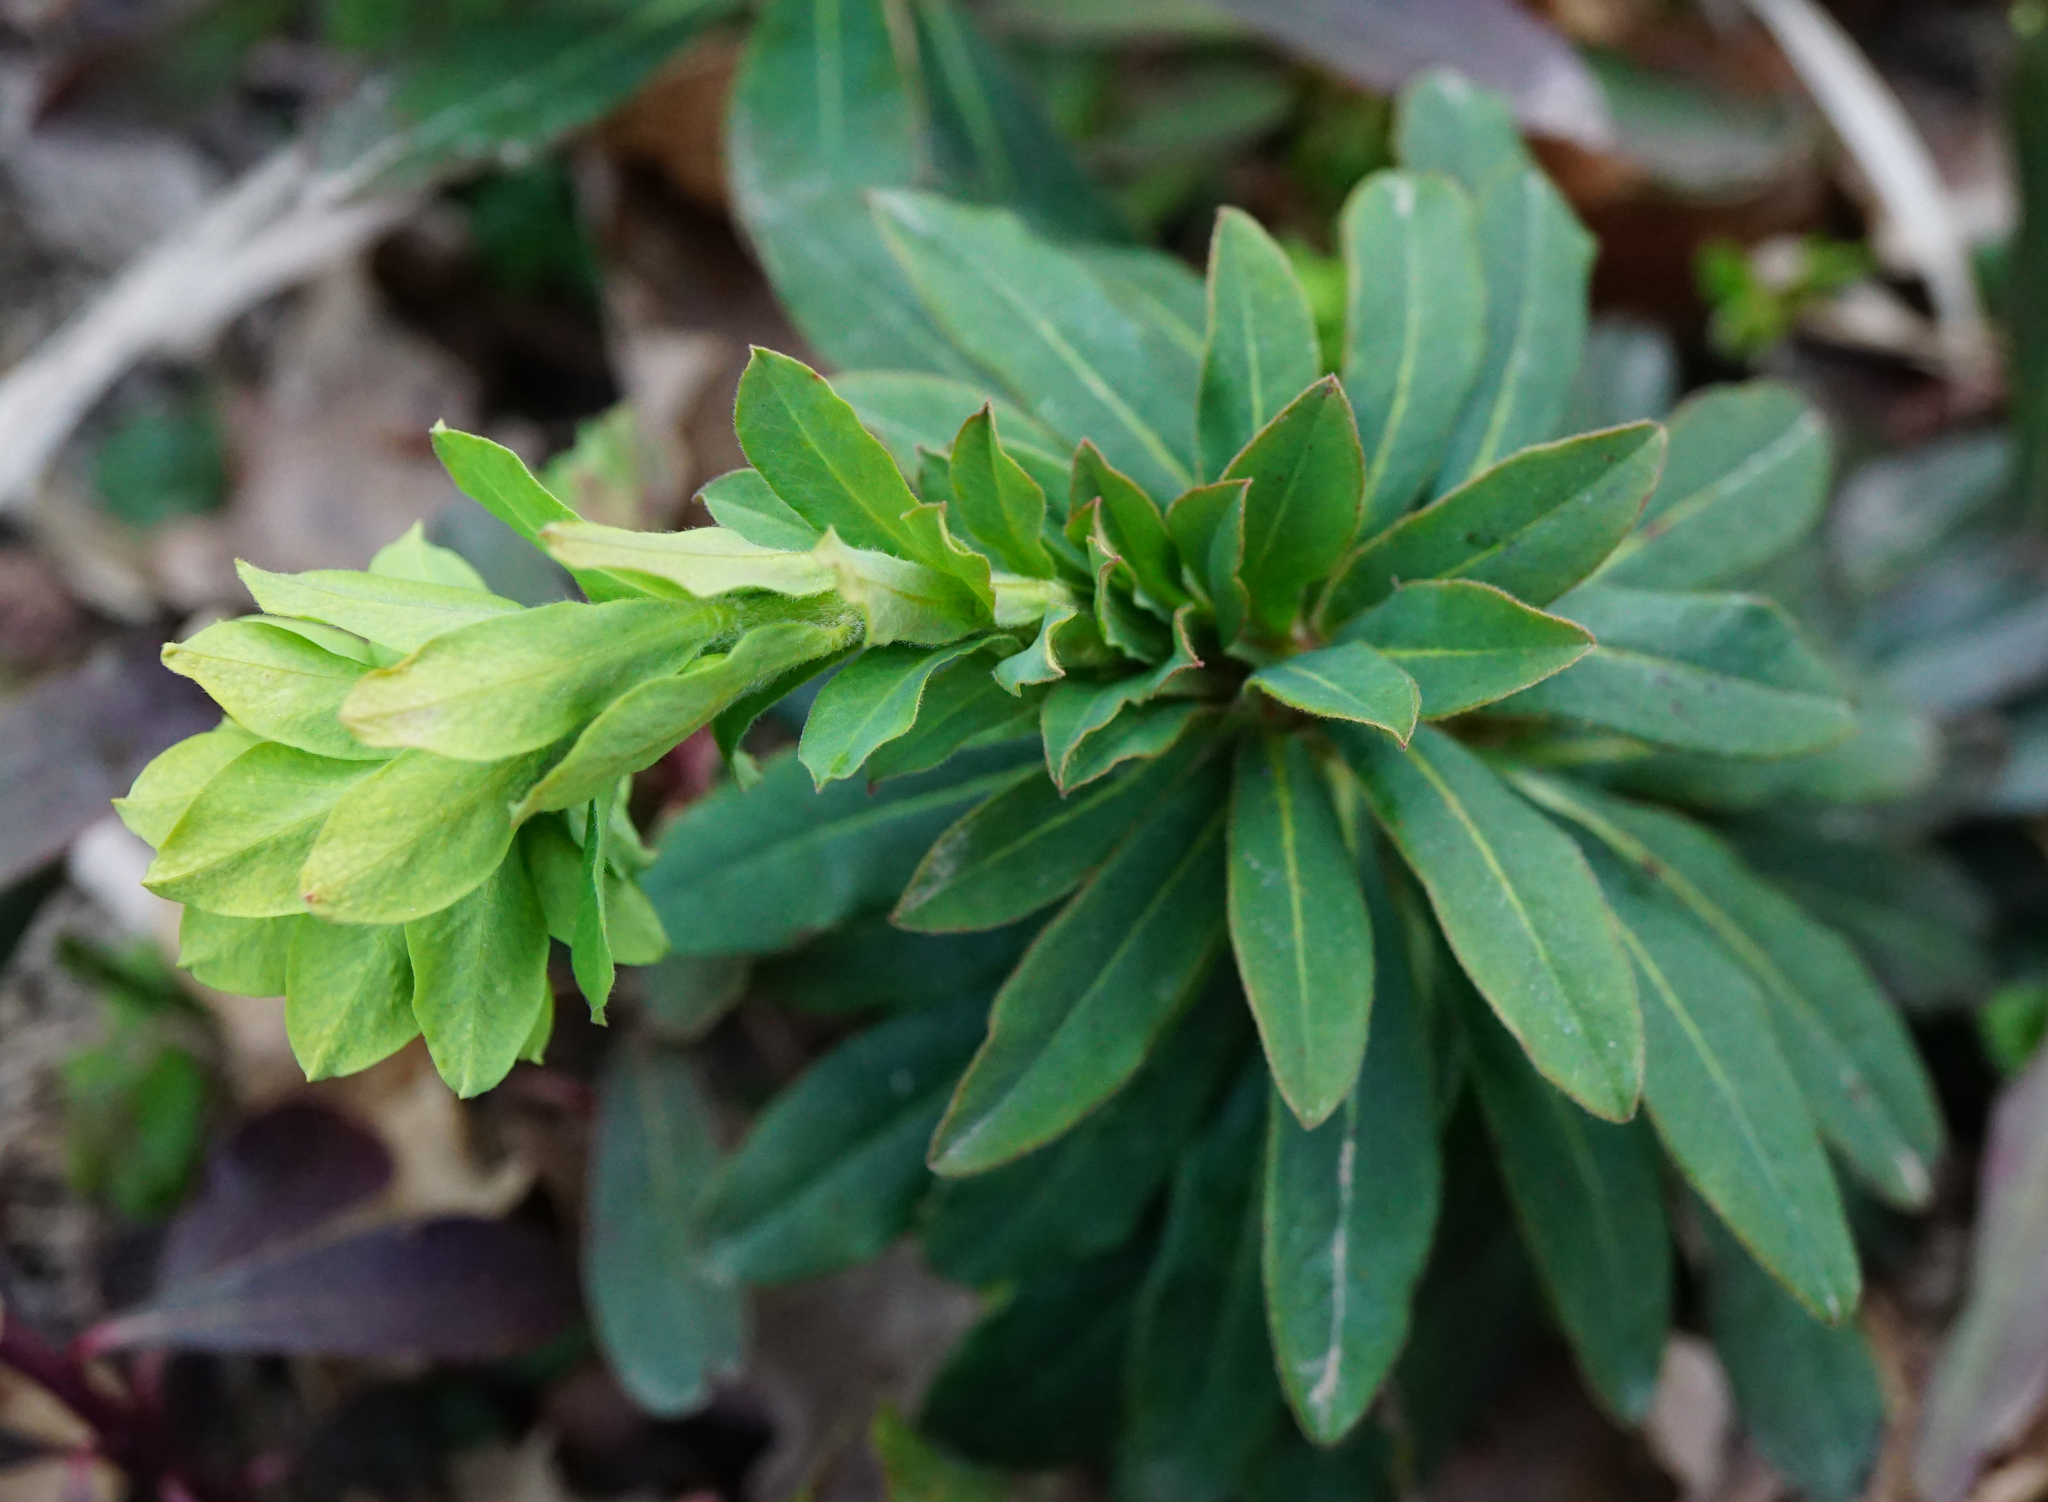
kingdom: Plantae
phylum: Tracheophyta
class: Magnoliopsida
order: Malpighiales
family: Euphorbiaceae
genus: Euphorbia
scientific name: Euphorbia amygdaloides
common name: Wood spurge
